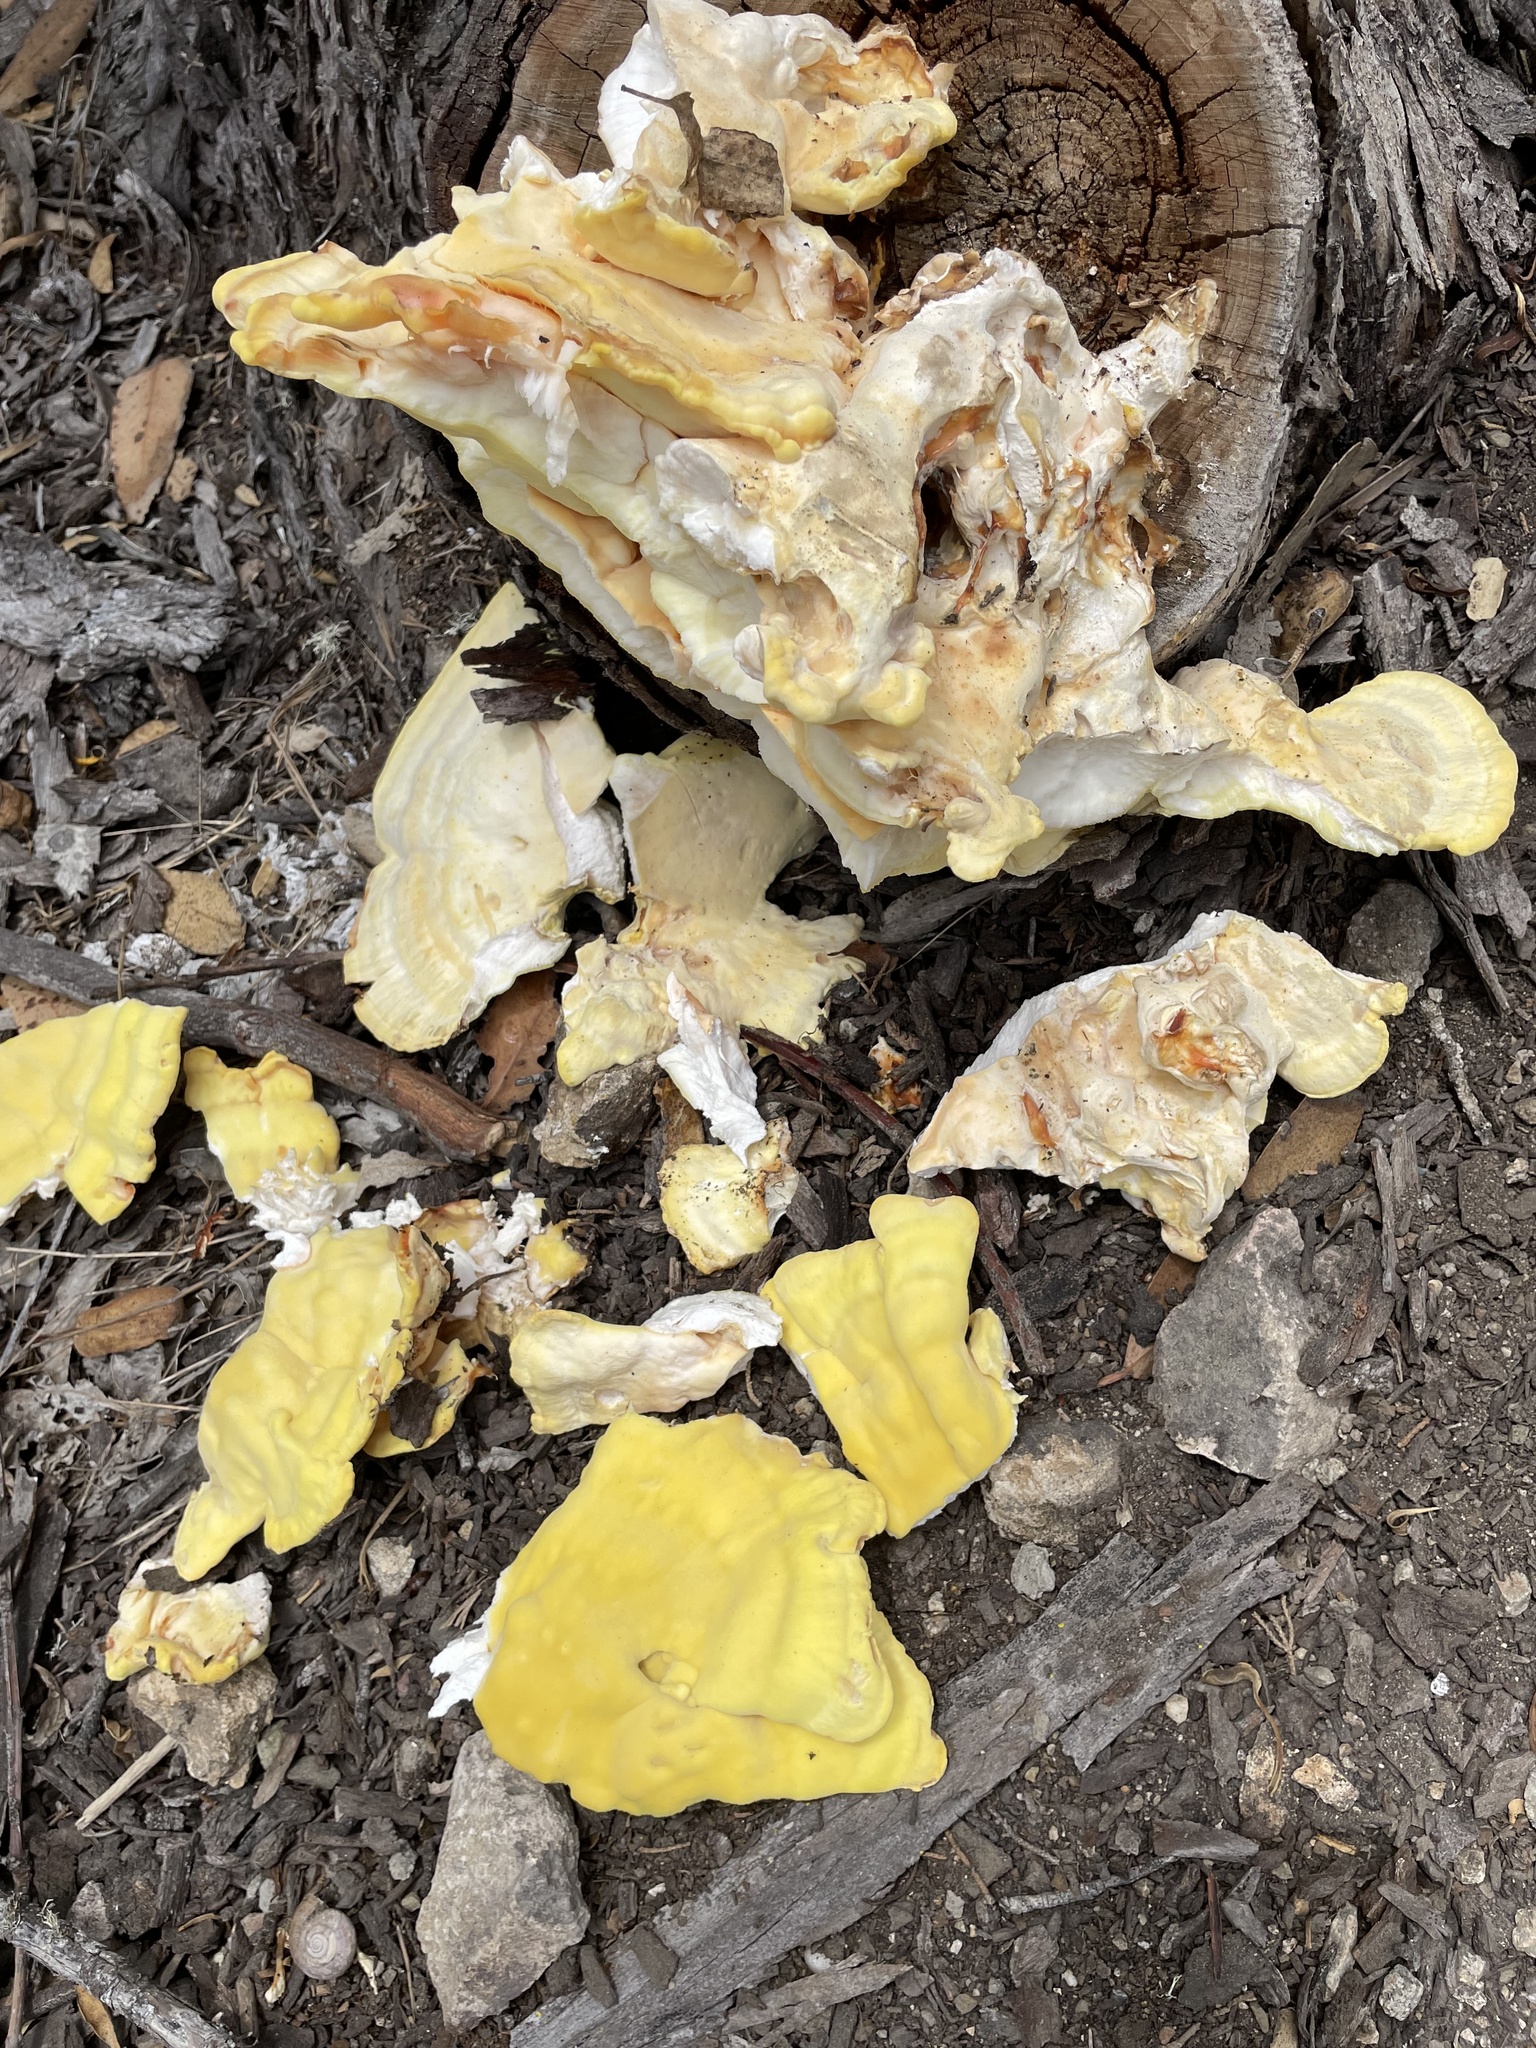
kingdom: Fungi
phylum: Basidiomycota
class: Agaricomycetes
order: Polyporales
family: Laetiporaceae
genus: Laetiporus
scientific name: Laetiporus gilbertsonii
